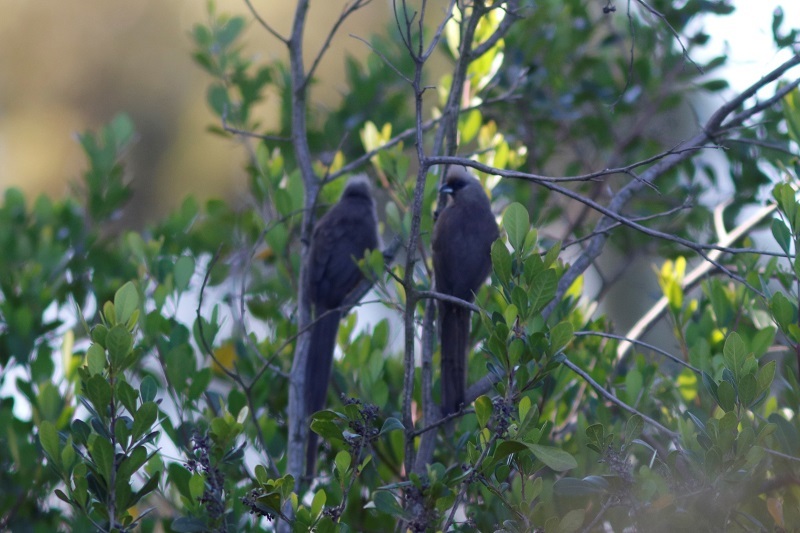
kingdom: Animalia
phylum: Chordata
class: Aves
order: Coliiformes
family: Coliidae
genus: Colius
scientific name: Colius striatus
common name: Speckled mousebird
